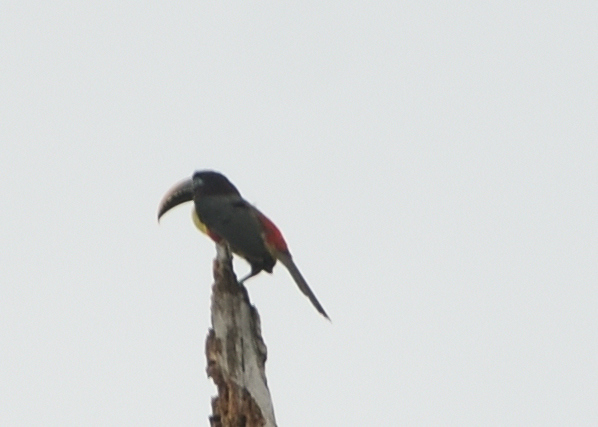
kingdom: Animalia
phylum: Chordata
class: Aves
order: Piciformes
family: Ramphastidae
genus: Pteroglossus
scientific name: Pteroglossus castanotis
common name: Chestnut-eared aracari
